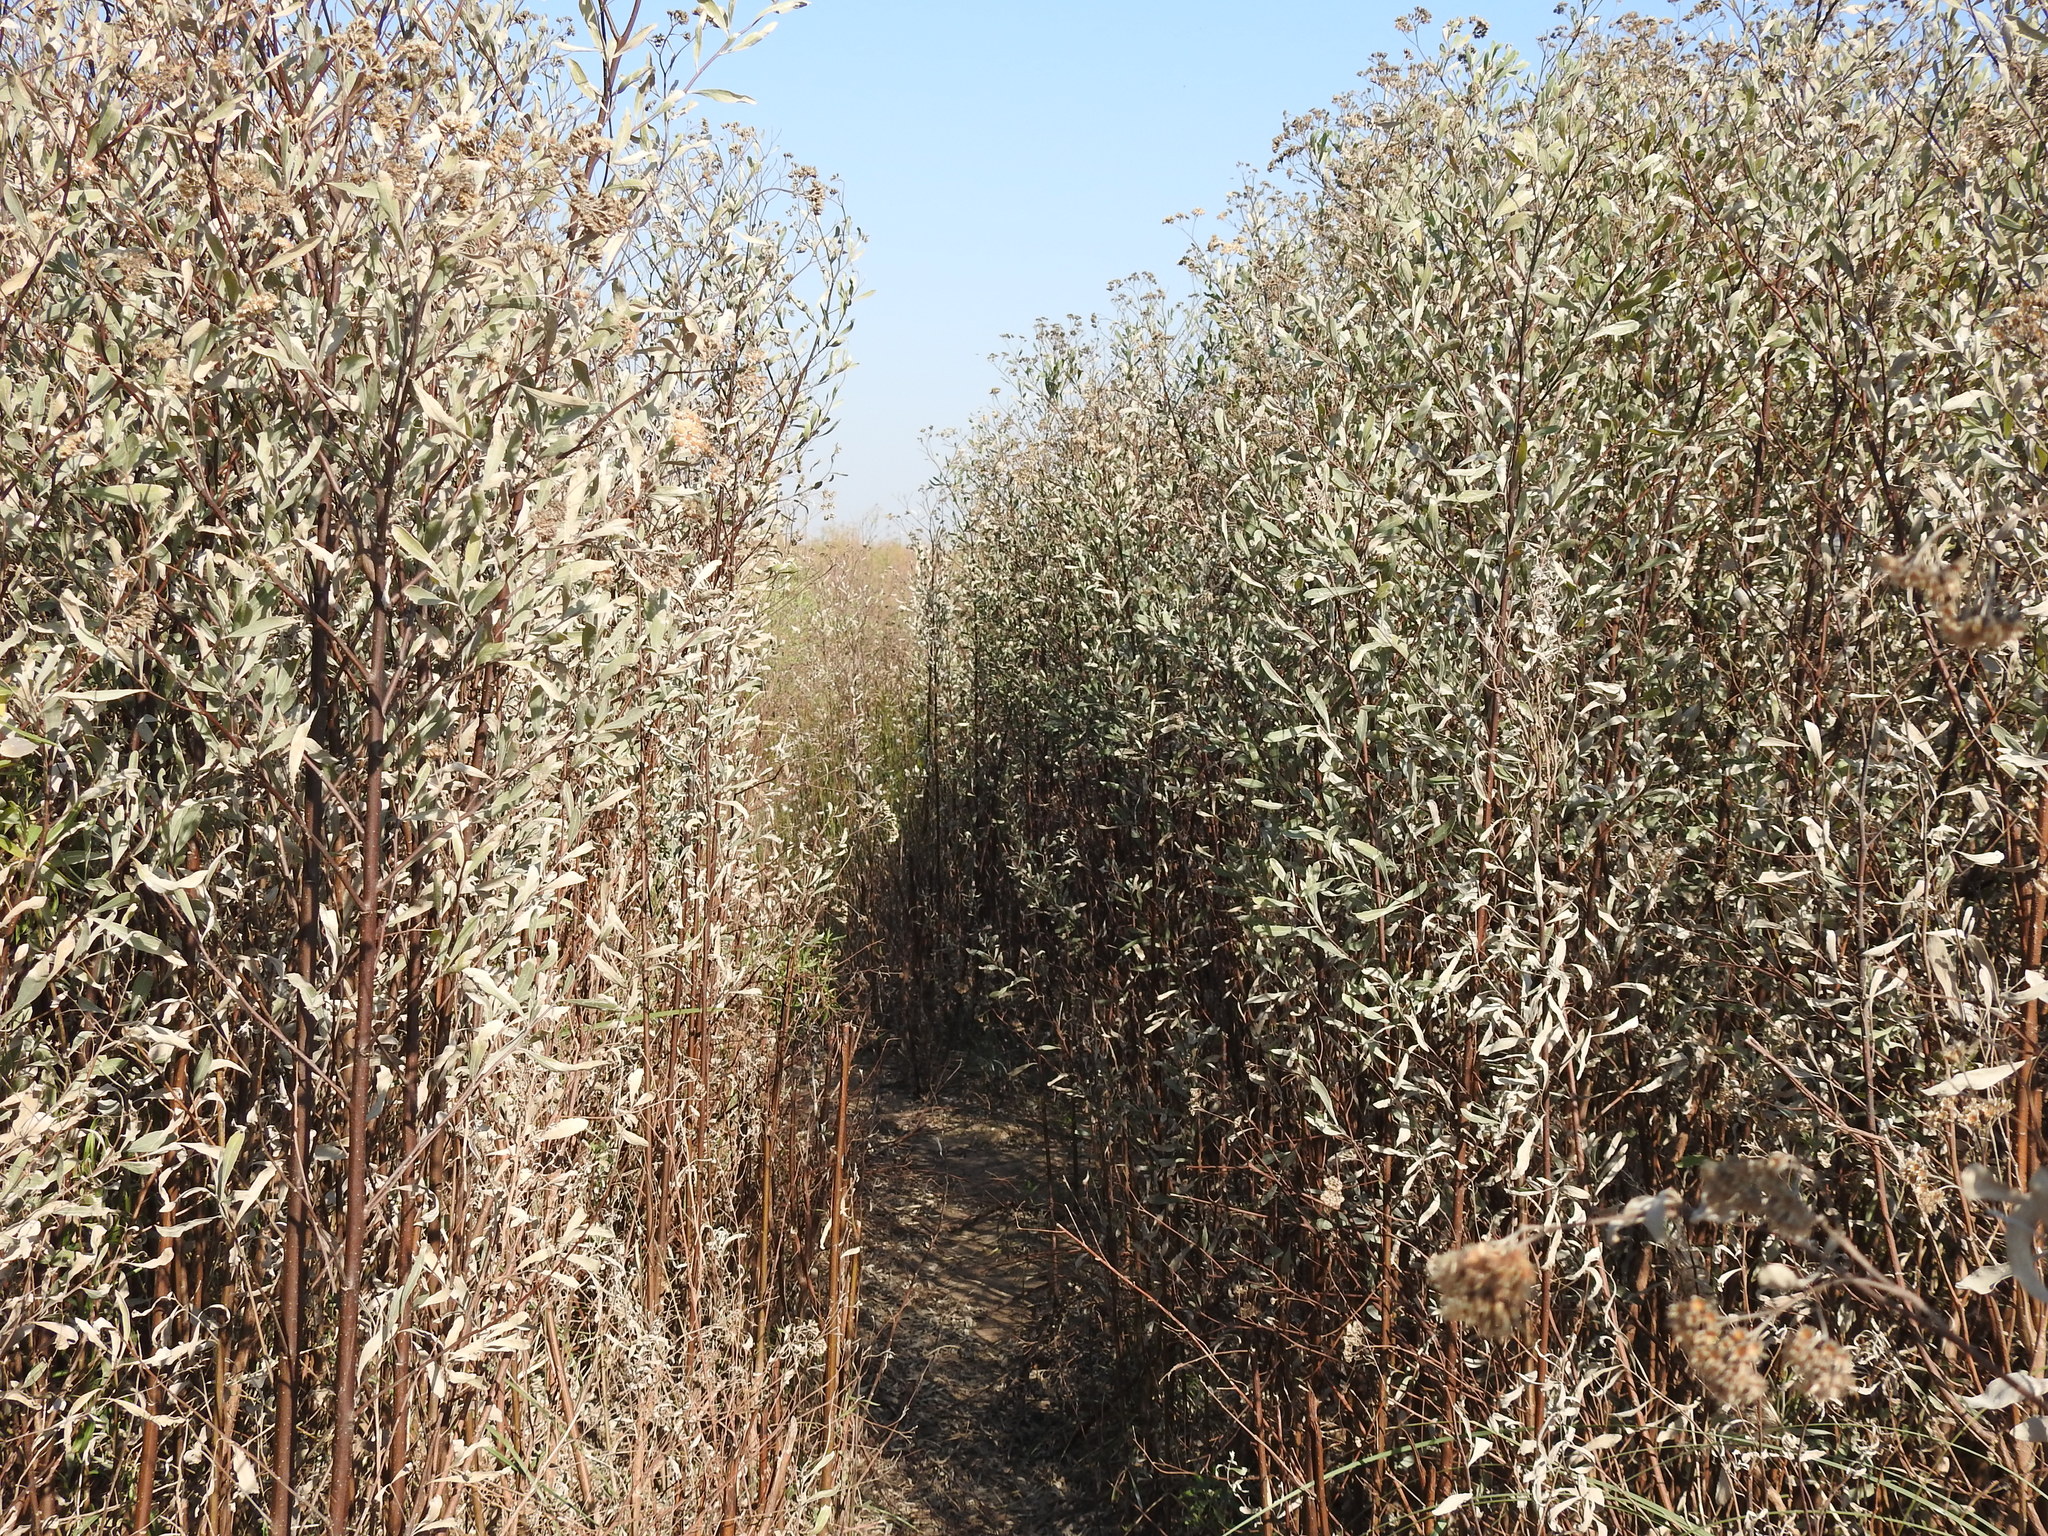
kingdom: Plantae
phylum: Tracheophyta
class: Magnoliopsida
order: Asterales
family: Asteraceae
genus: Tessaria
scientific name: Tessaria integrifolia
